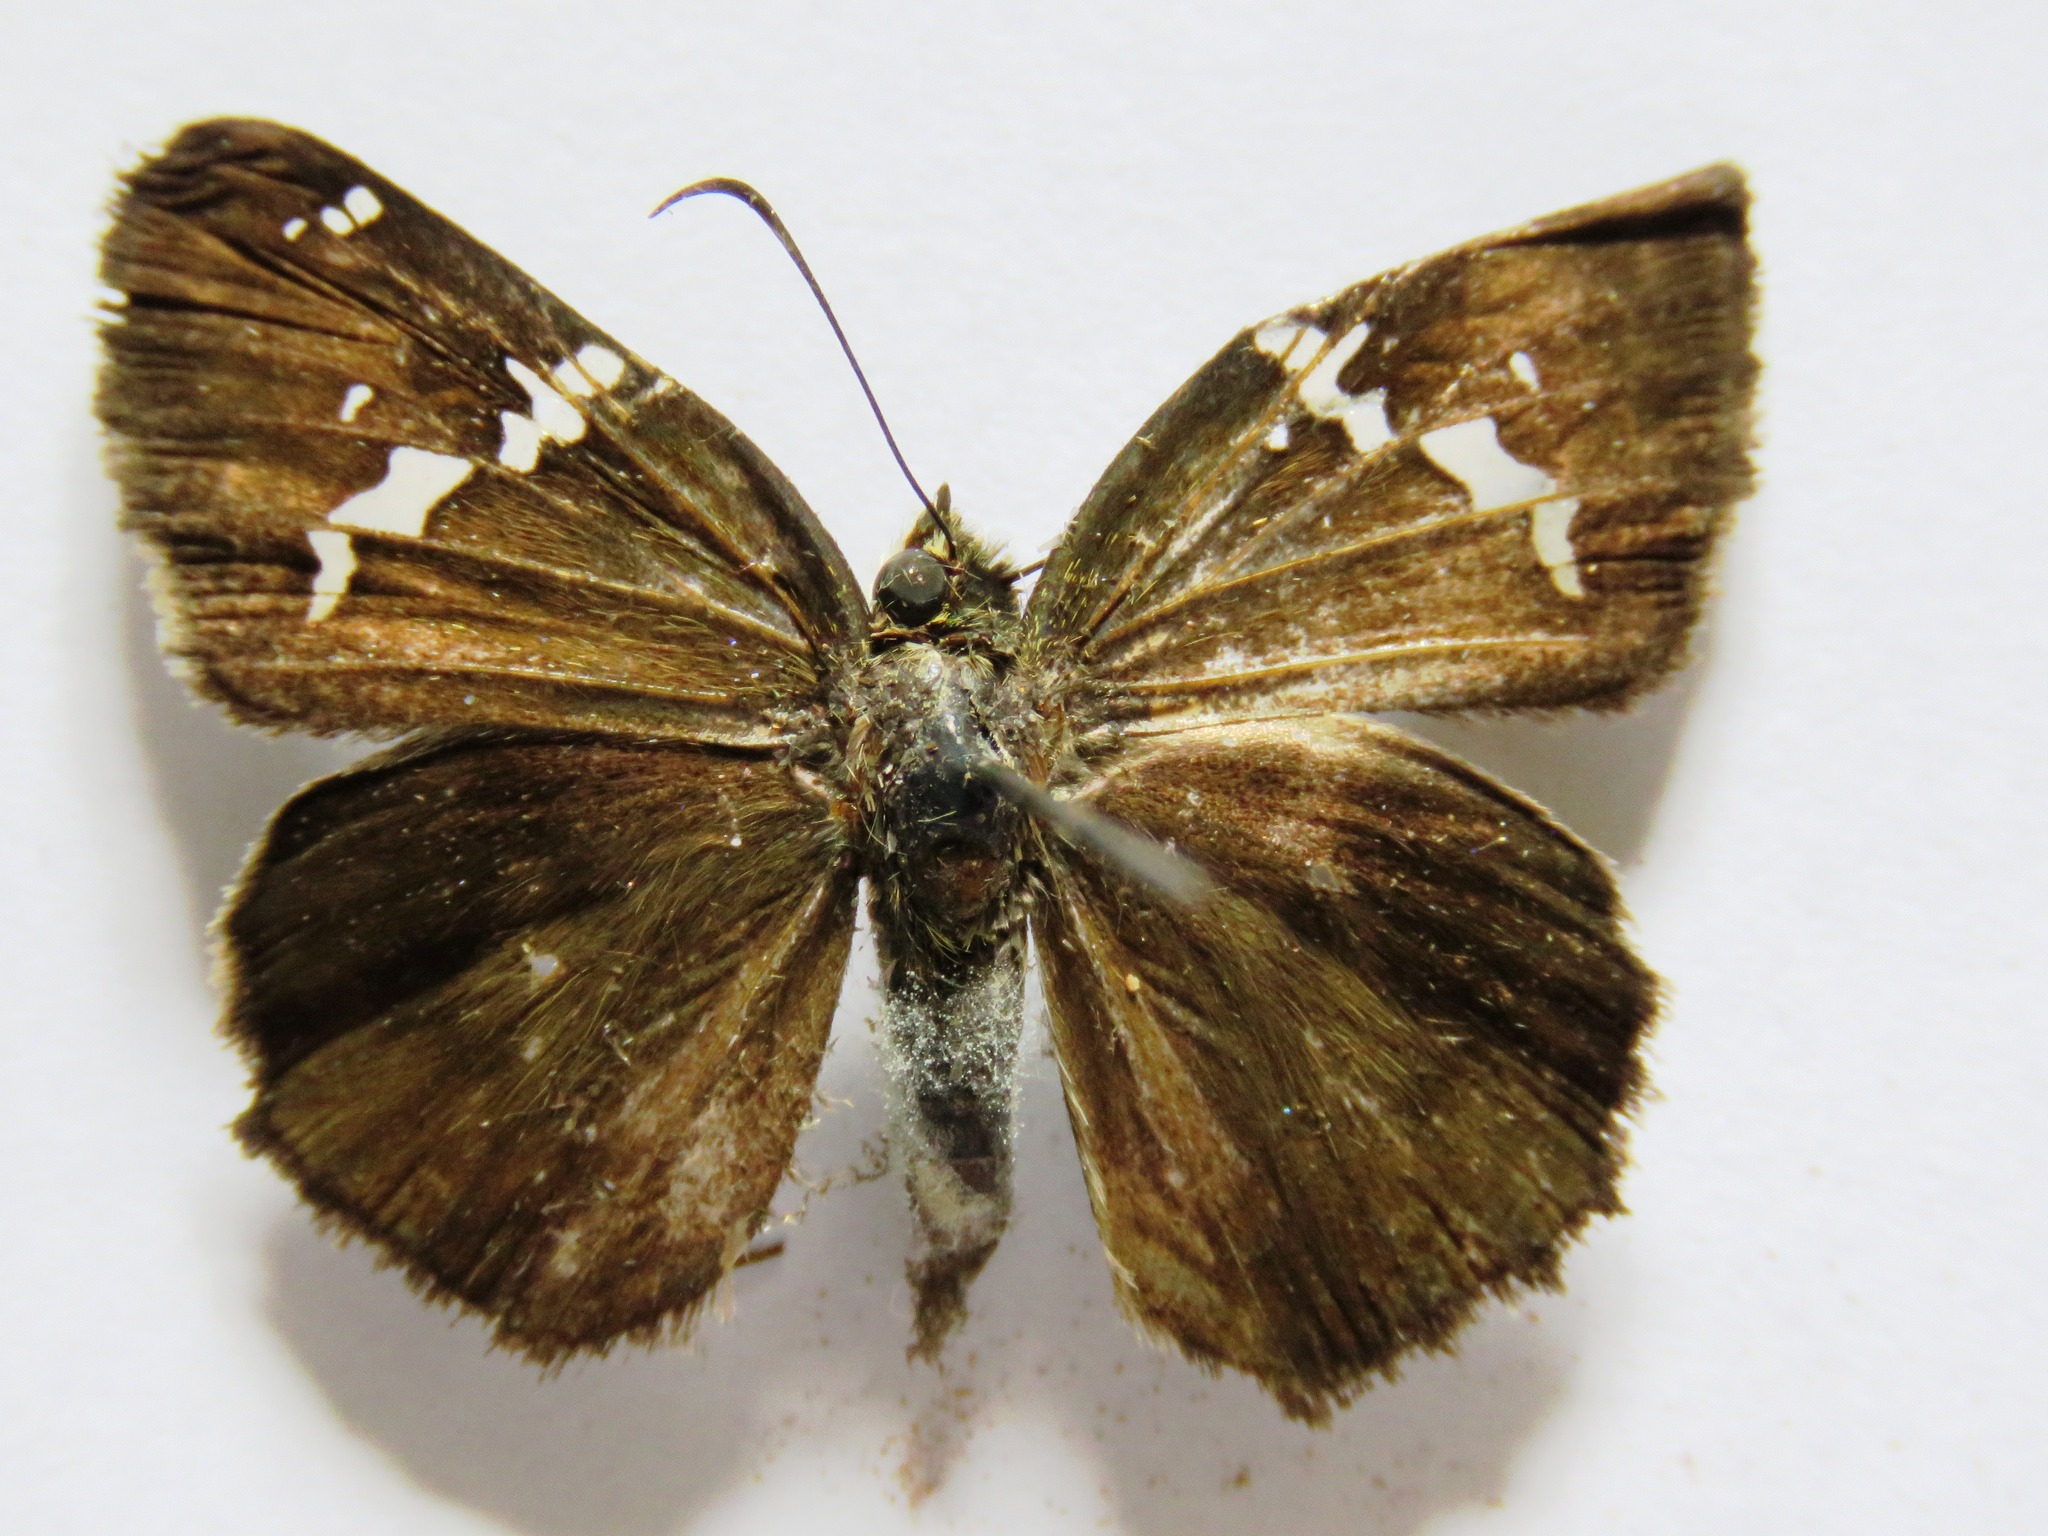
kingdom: Animalia
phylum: Arthropoda
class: Insecta
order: Lepidoptera
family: Hesperiidae
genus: Autochton
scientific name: Autochton potrillo
